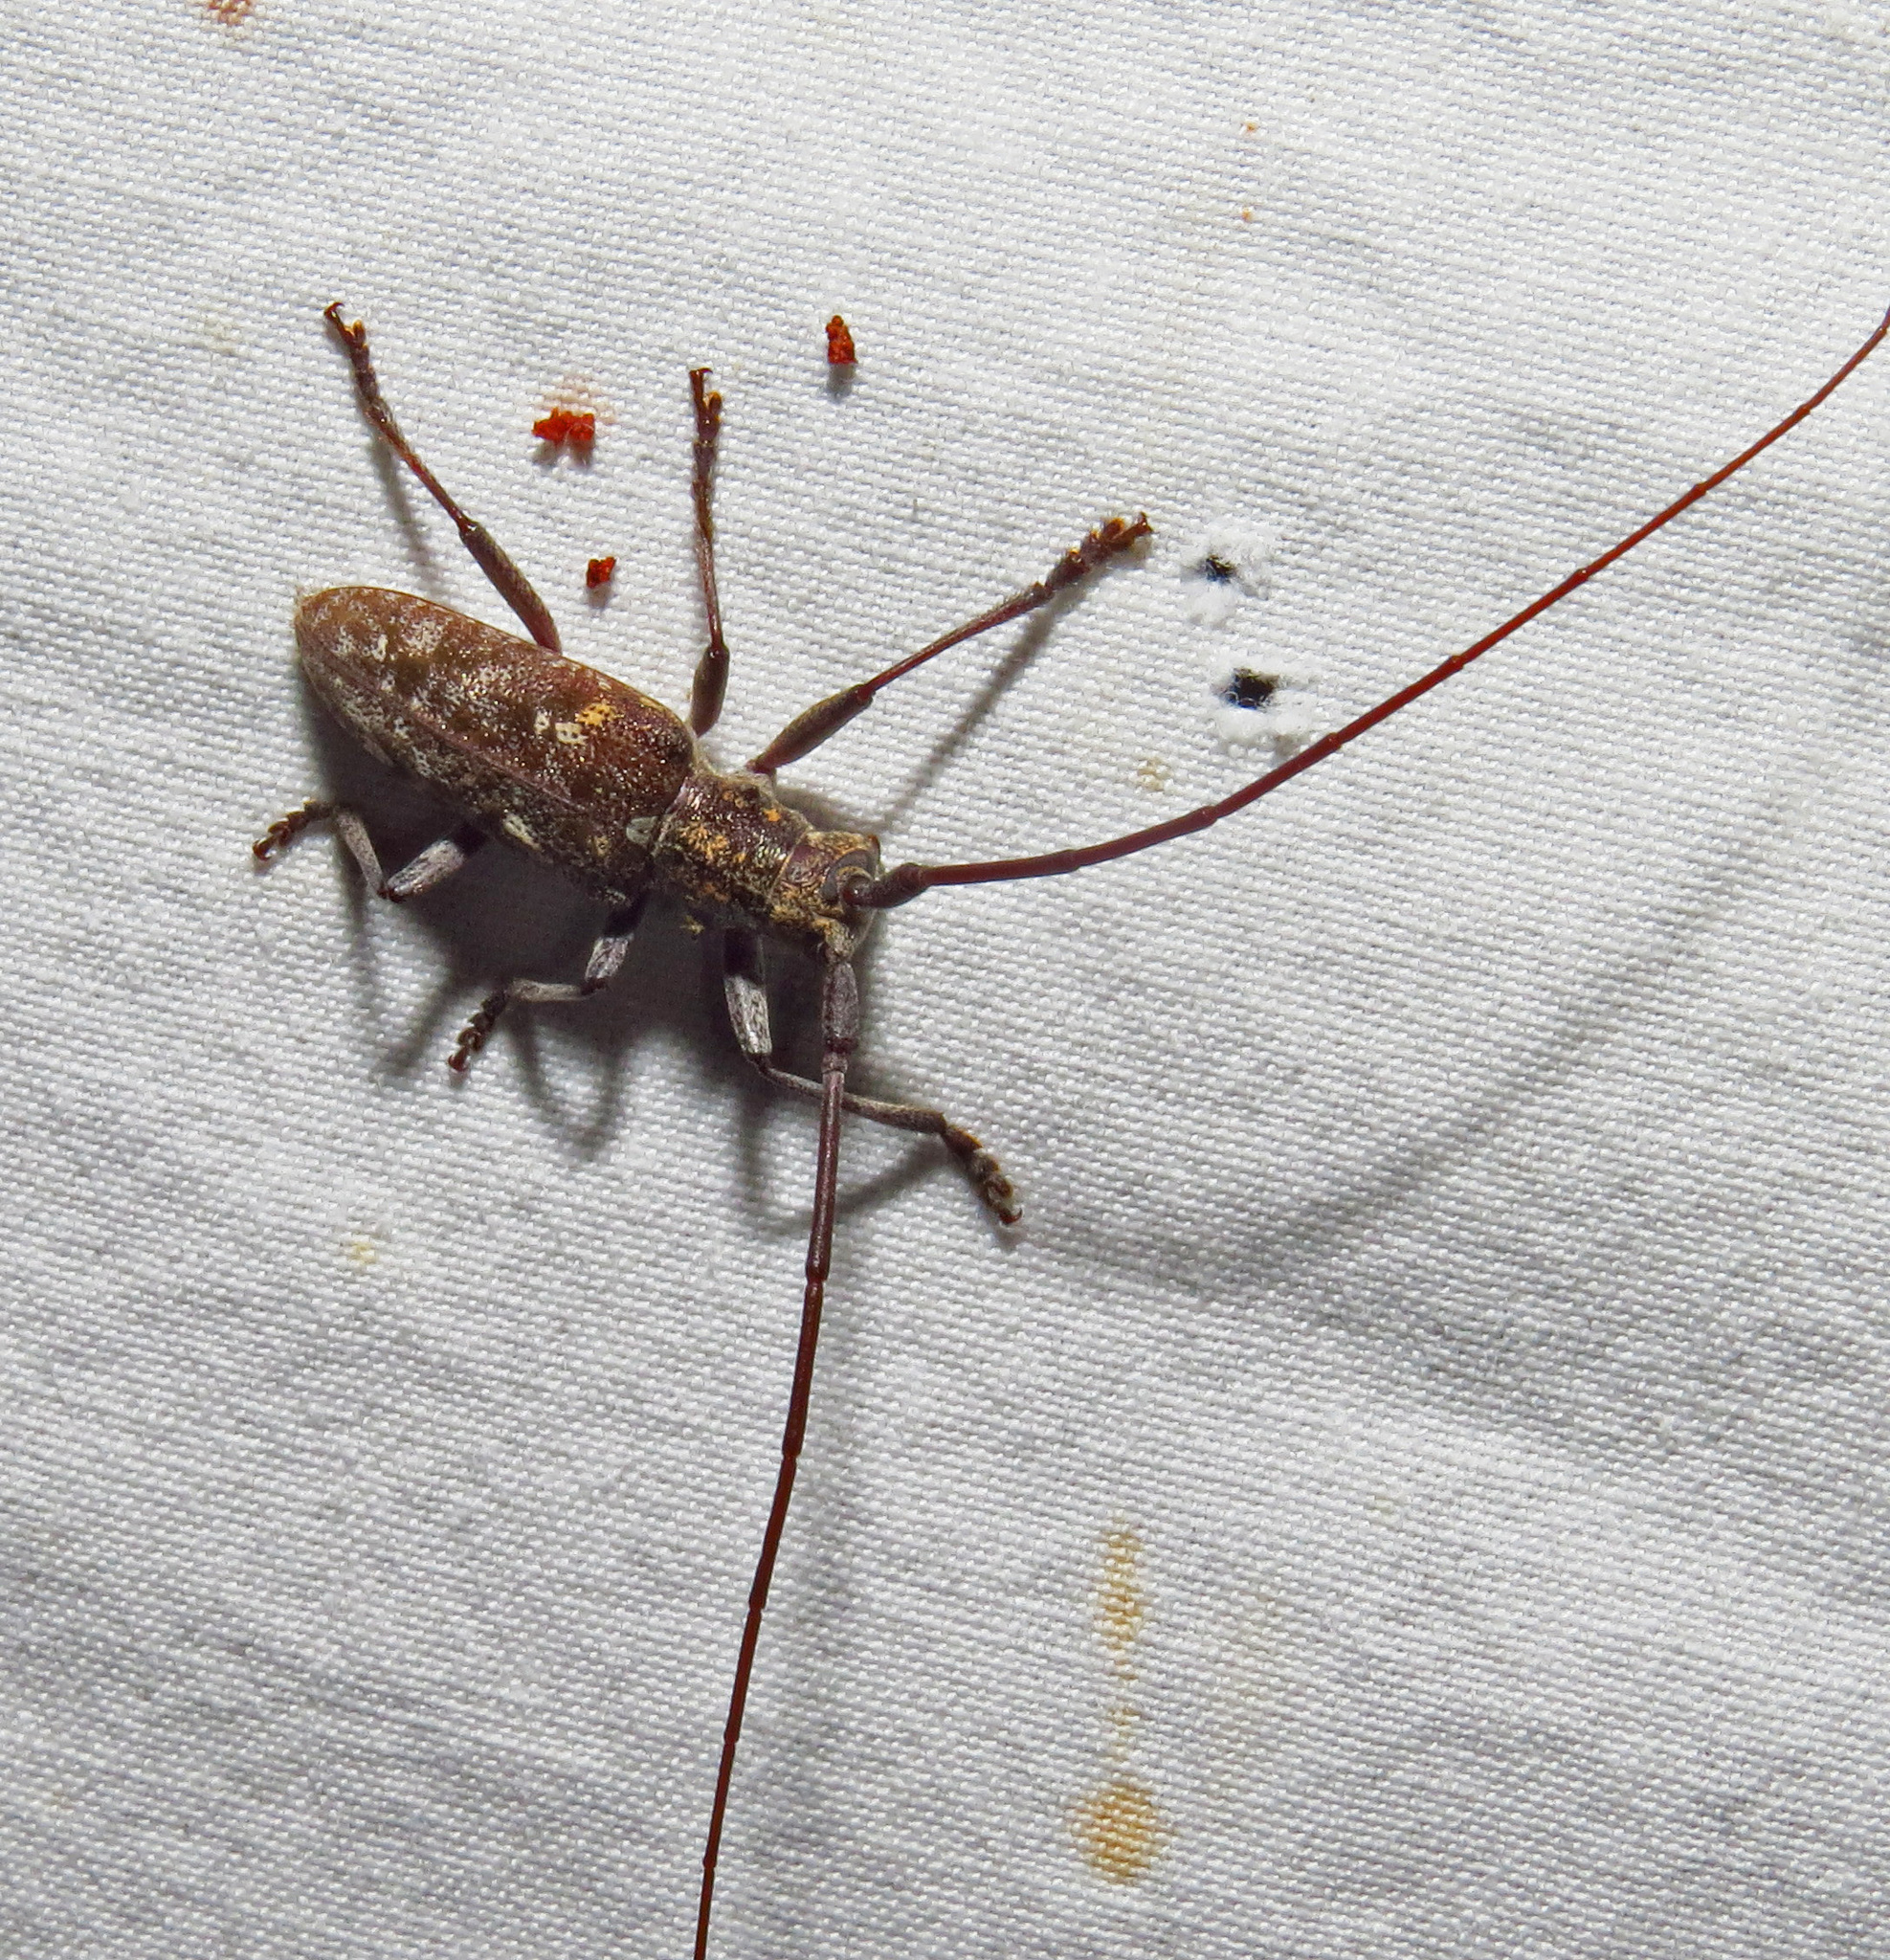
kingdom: Animalia
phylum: Arthropoda
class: Insecta
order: Coleoptera
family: Cerambycidae
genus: Monochamus
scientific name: Monochamus carolinensis
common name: Carolina pine sawyer
